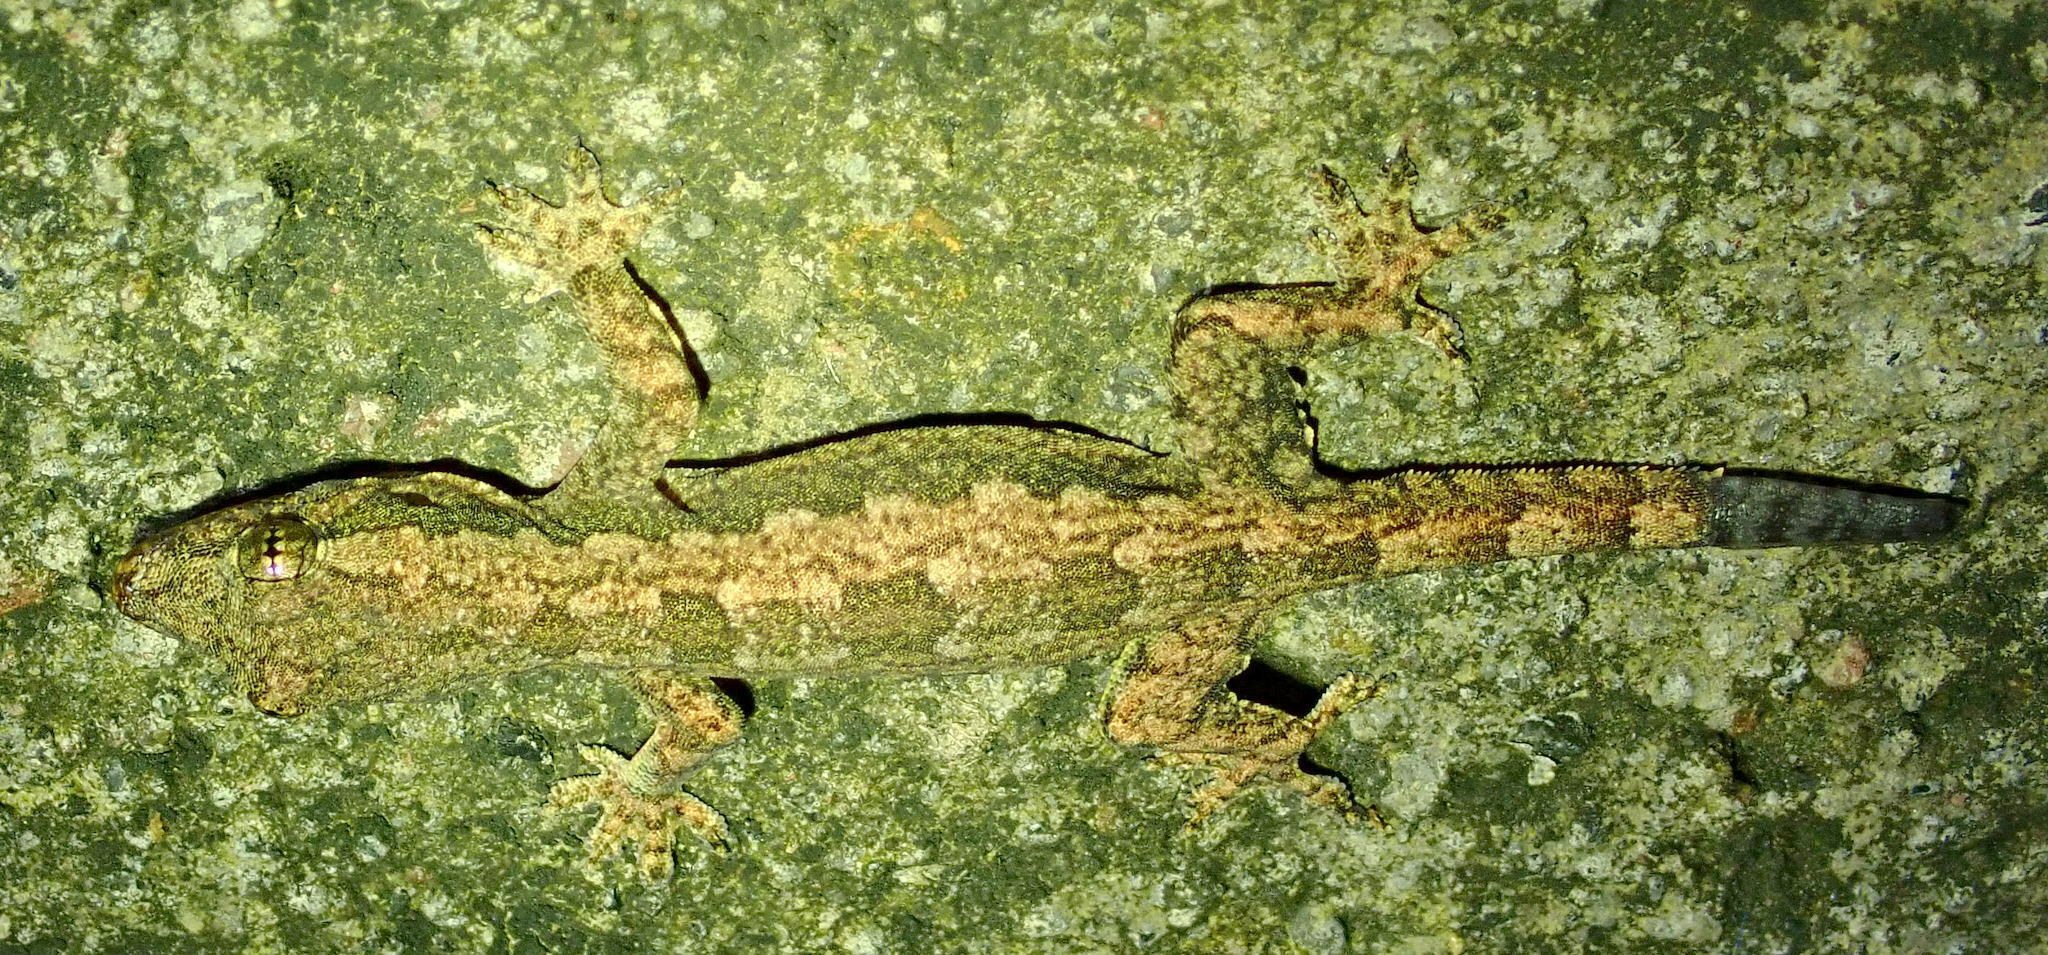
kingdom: Animalia
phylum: Chordata
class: Squamata
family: Gekkonidae
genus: Hemidactylus
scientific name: Hemidactylus platyurus
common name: Flat-tailed house gecko
